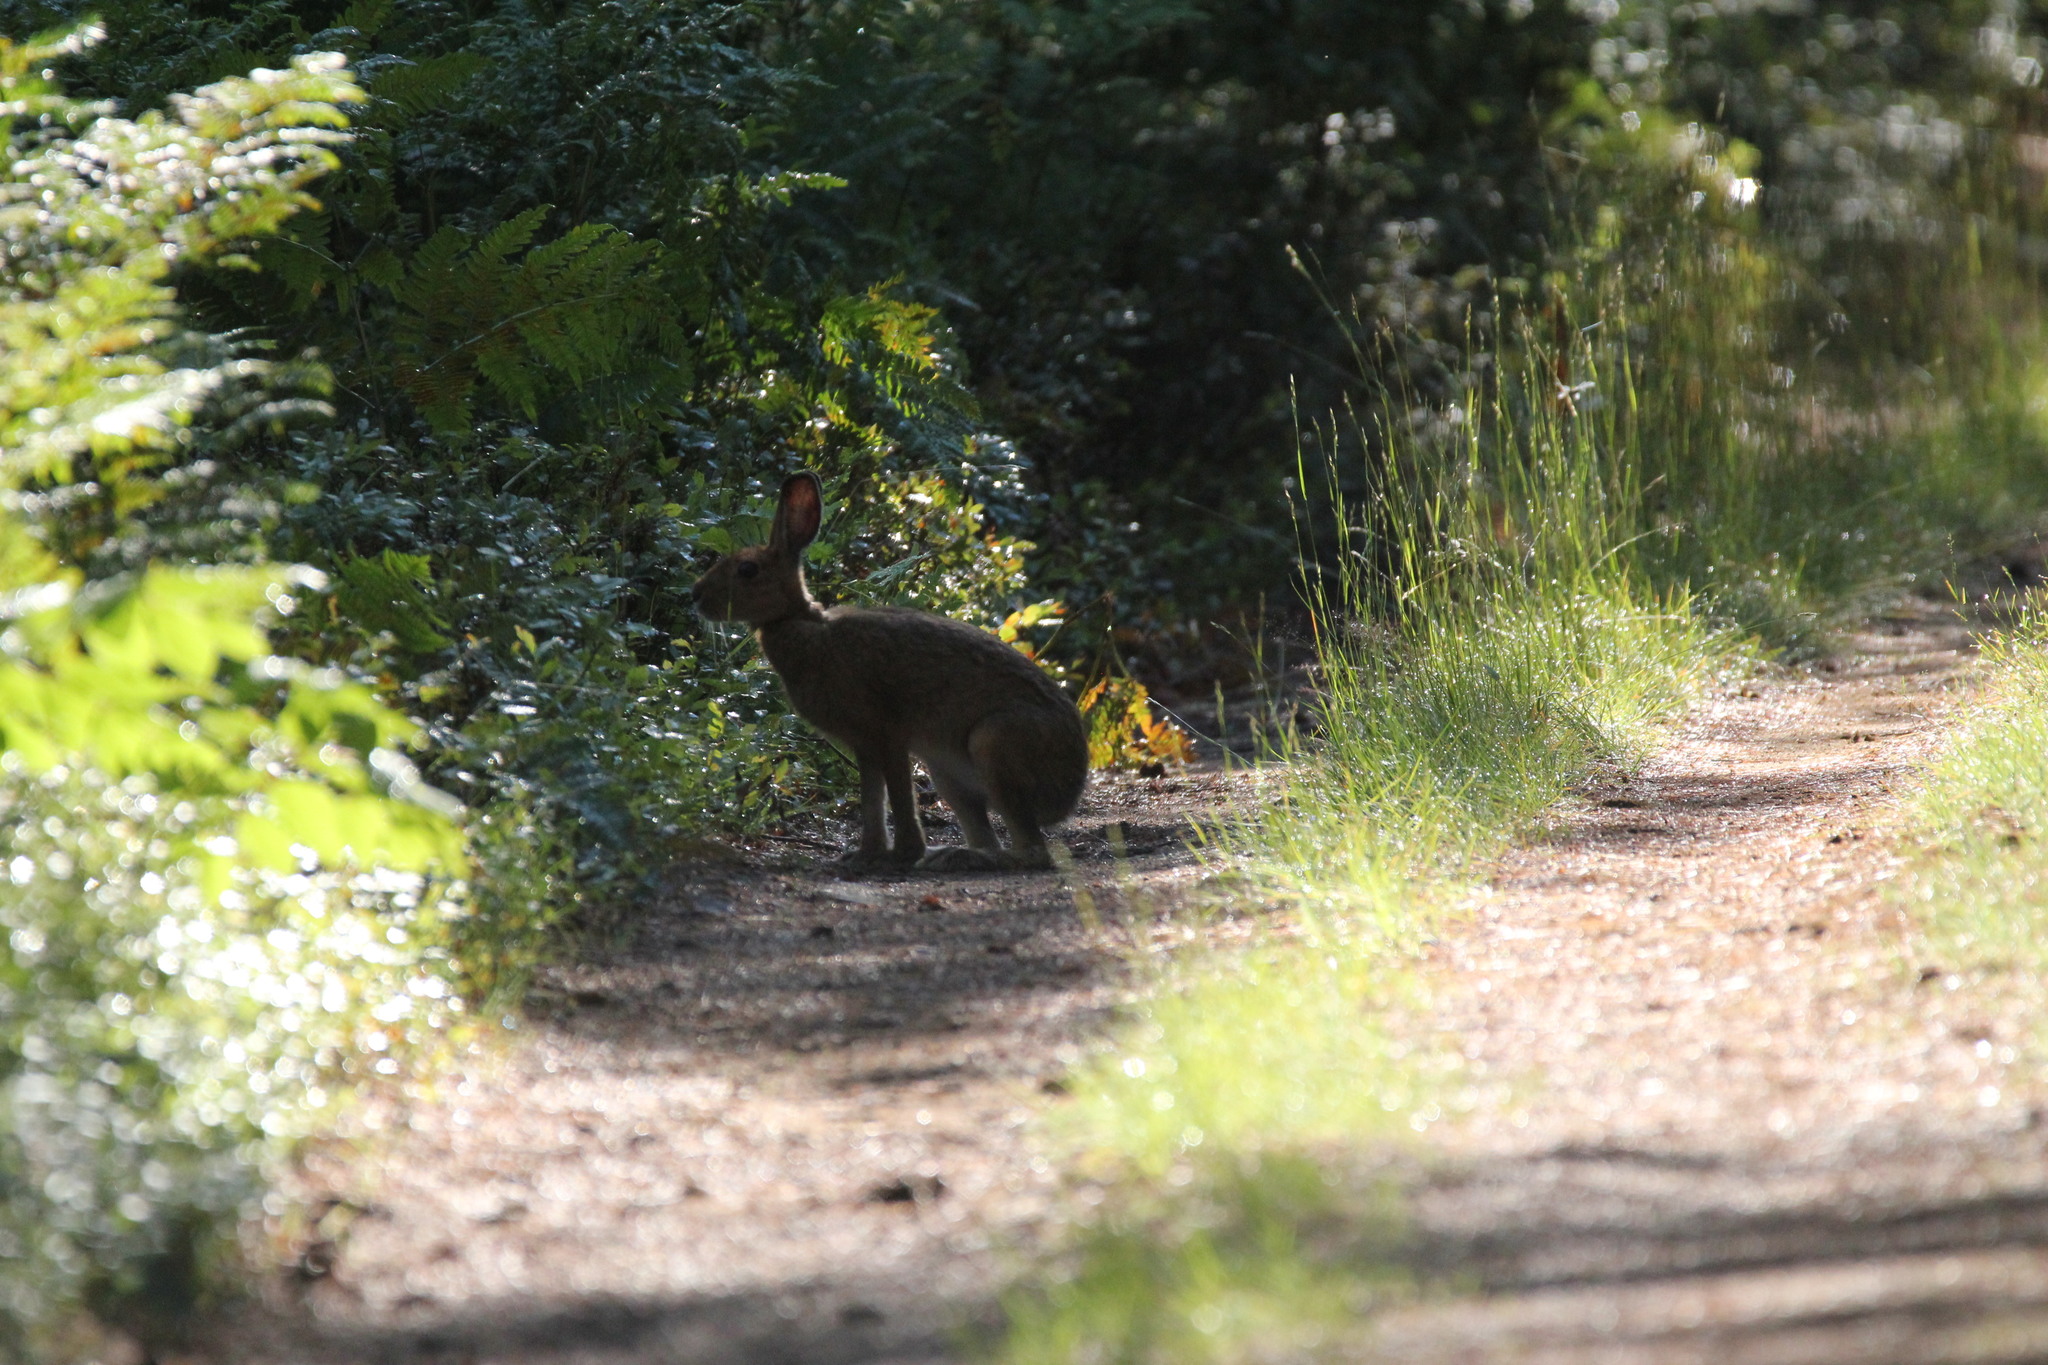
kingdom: Animalia
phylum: Chordata
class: Mammalia
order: Lagomorpha
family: Leporidae
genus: Lepus
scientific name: Lepus americanus
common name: Snowshoe hare
